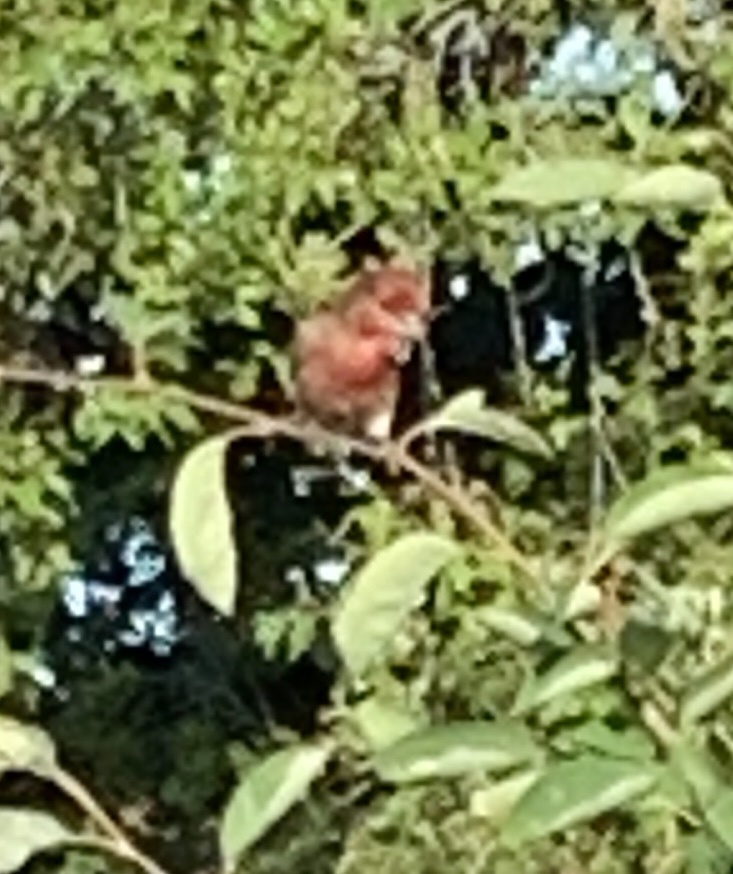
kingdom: Animalia
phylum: Chordata
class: Aves
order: Passeriformes
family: Fringillidae
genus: Haemorhous
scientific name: Haemorhous mexicanus
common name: House finch
